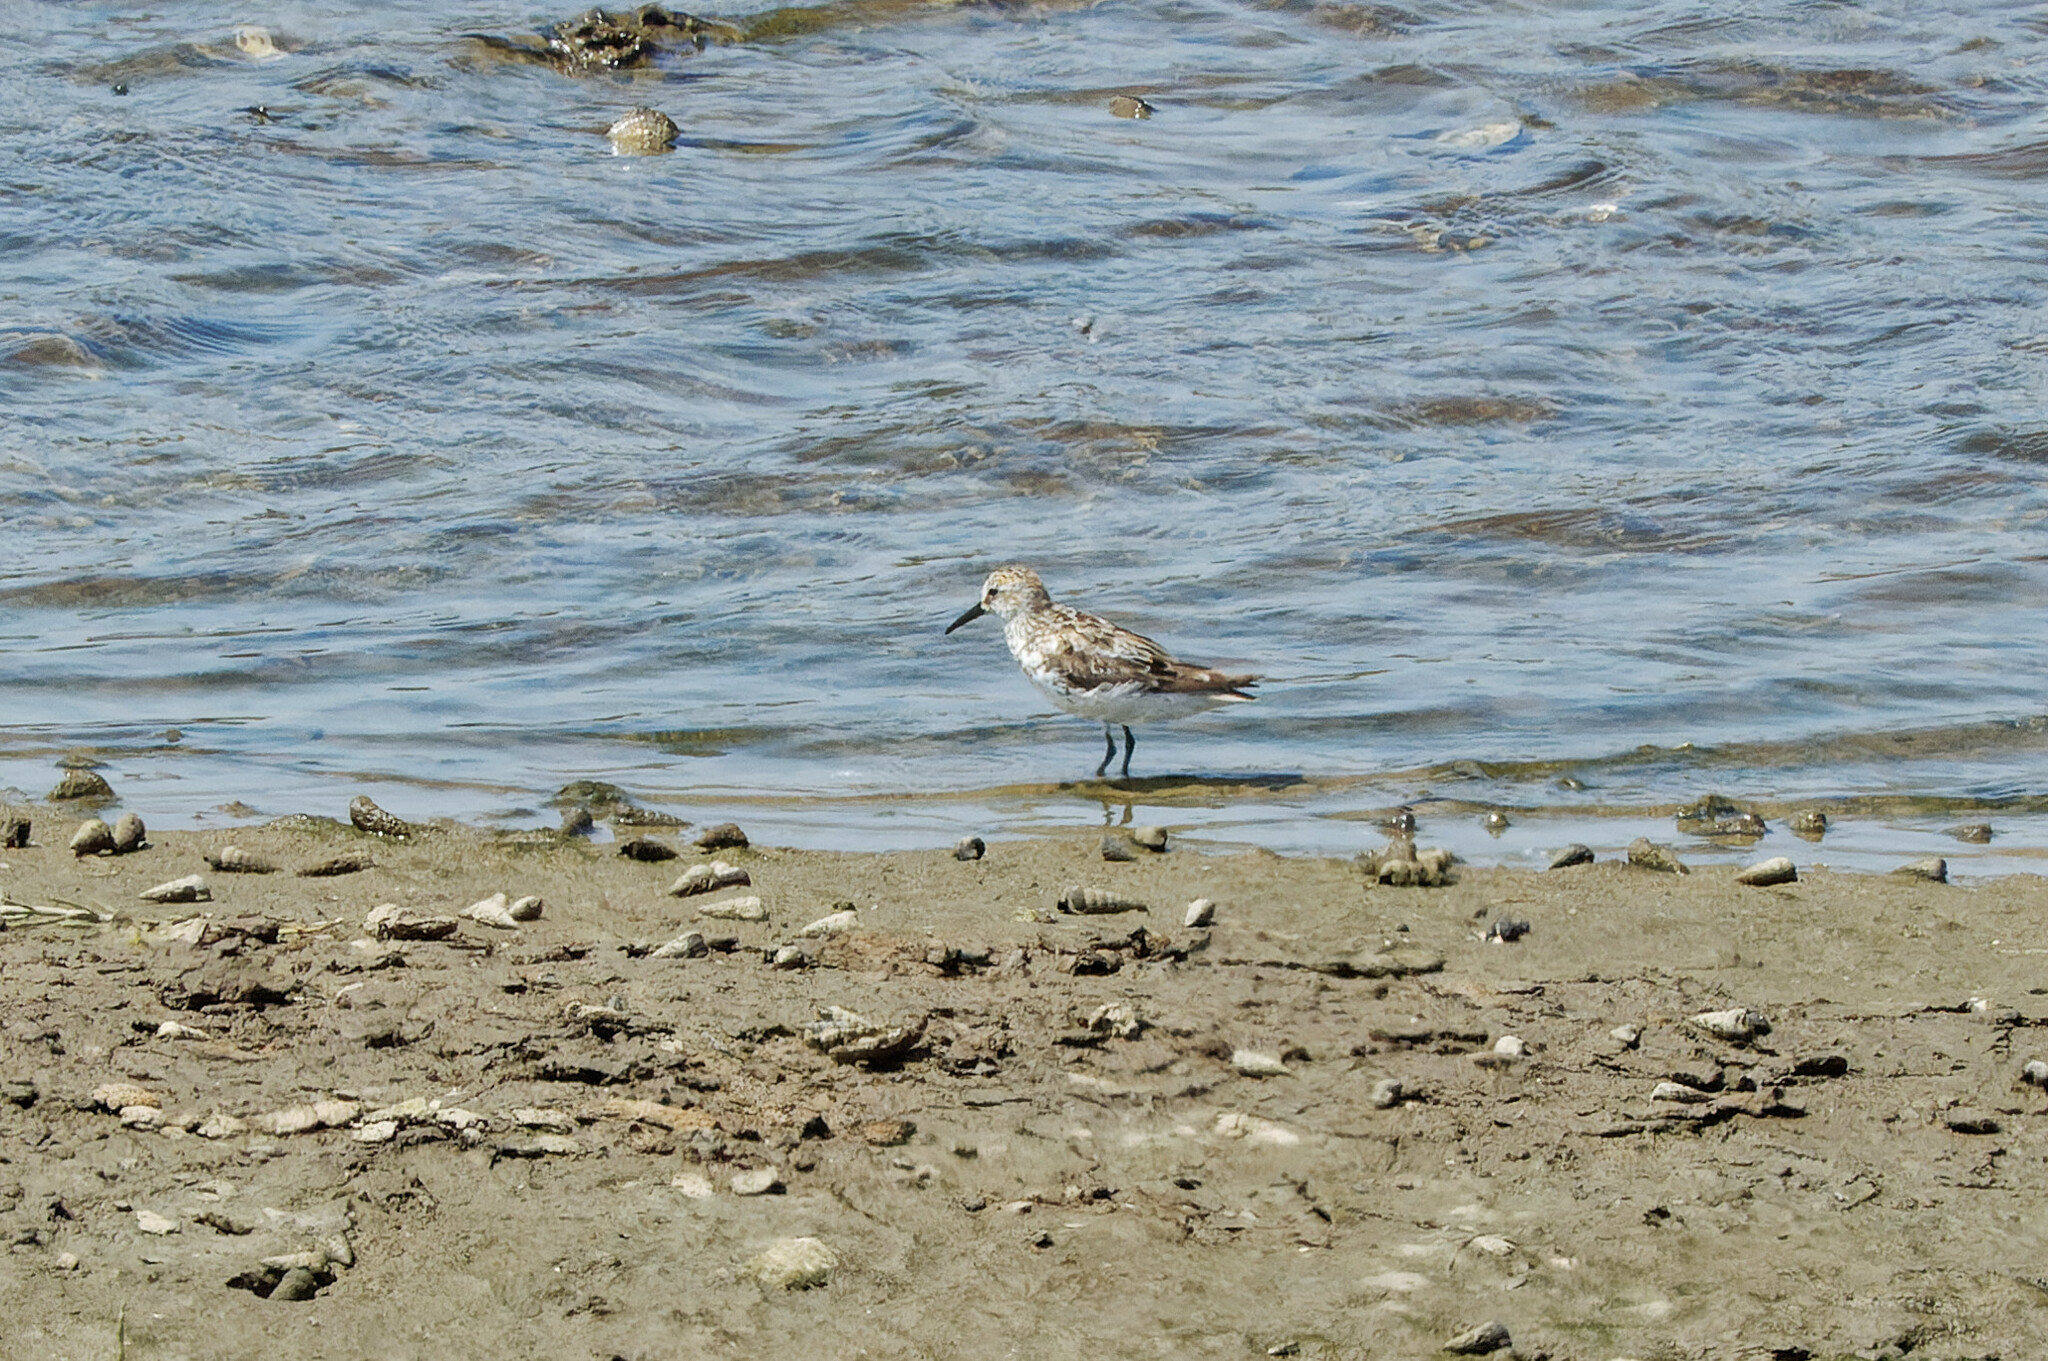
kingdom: Animalia
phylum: Chordata
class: Aves
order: Charadriiformes
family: Scolopacidae
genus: Calidris
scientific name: Calidris mauri
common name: Western sandpiper
